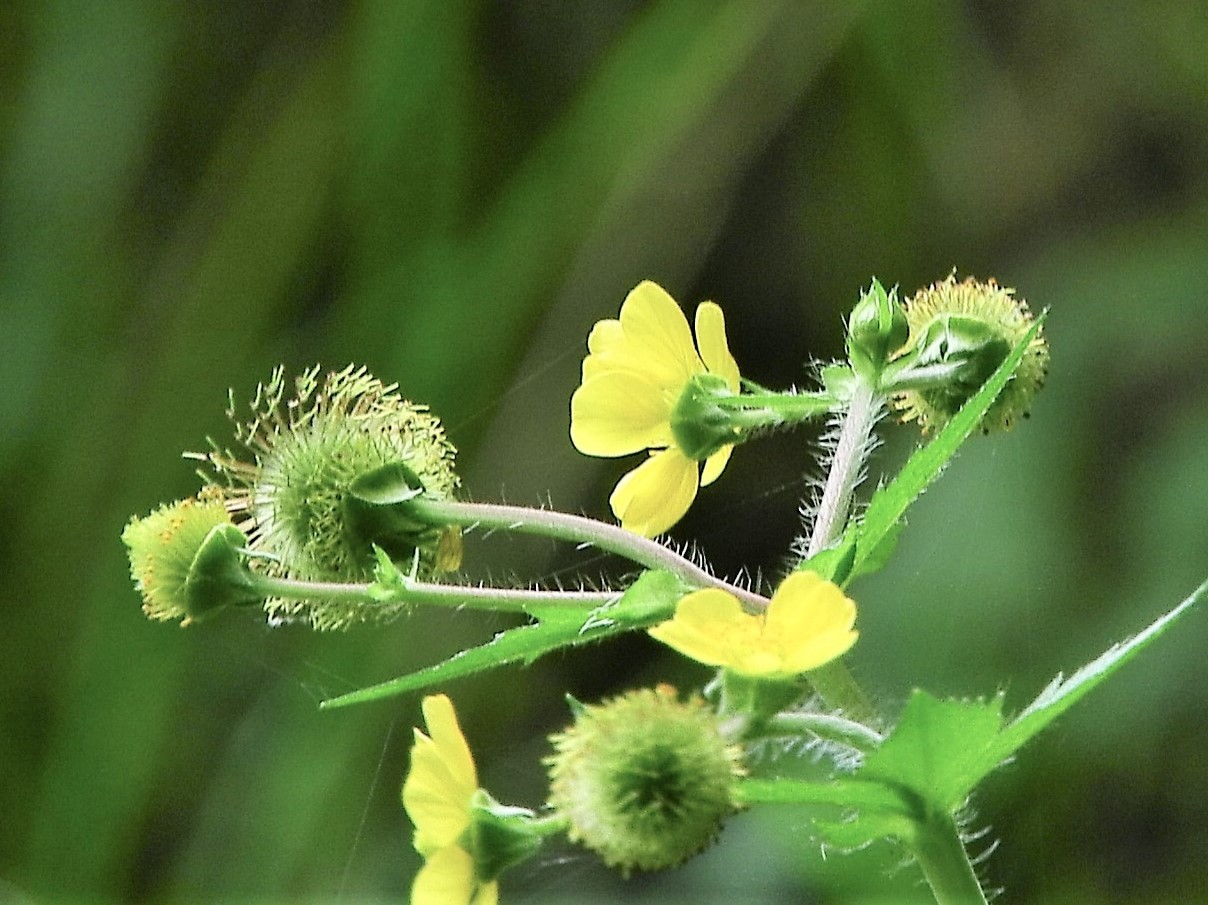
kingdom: Plantae
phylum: Tracheophyta
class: Magnoliopsida
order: Rosales
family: Rosaceae
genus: Geum
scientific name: Geum macrophyllum
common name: Large-leaved avens
